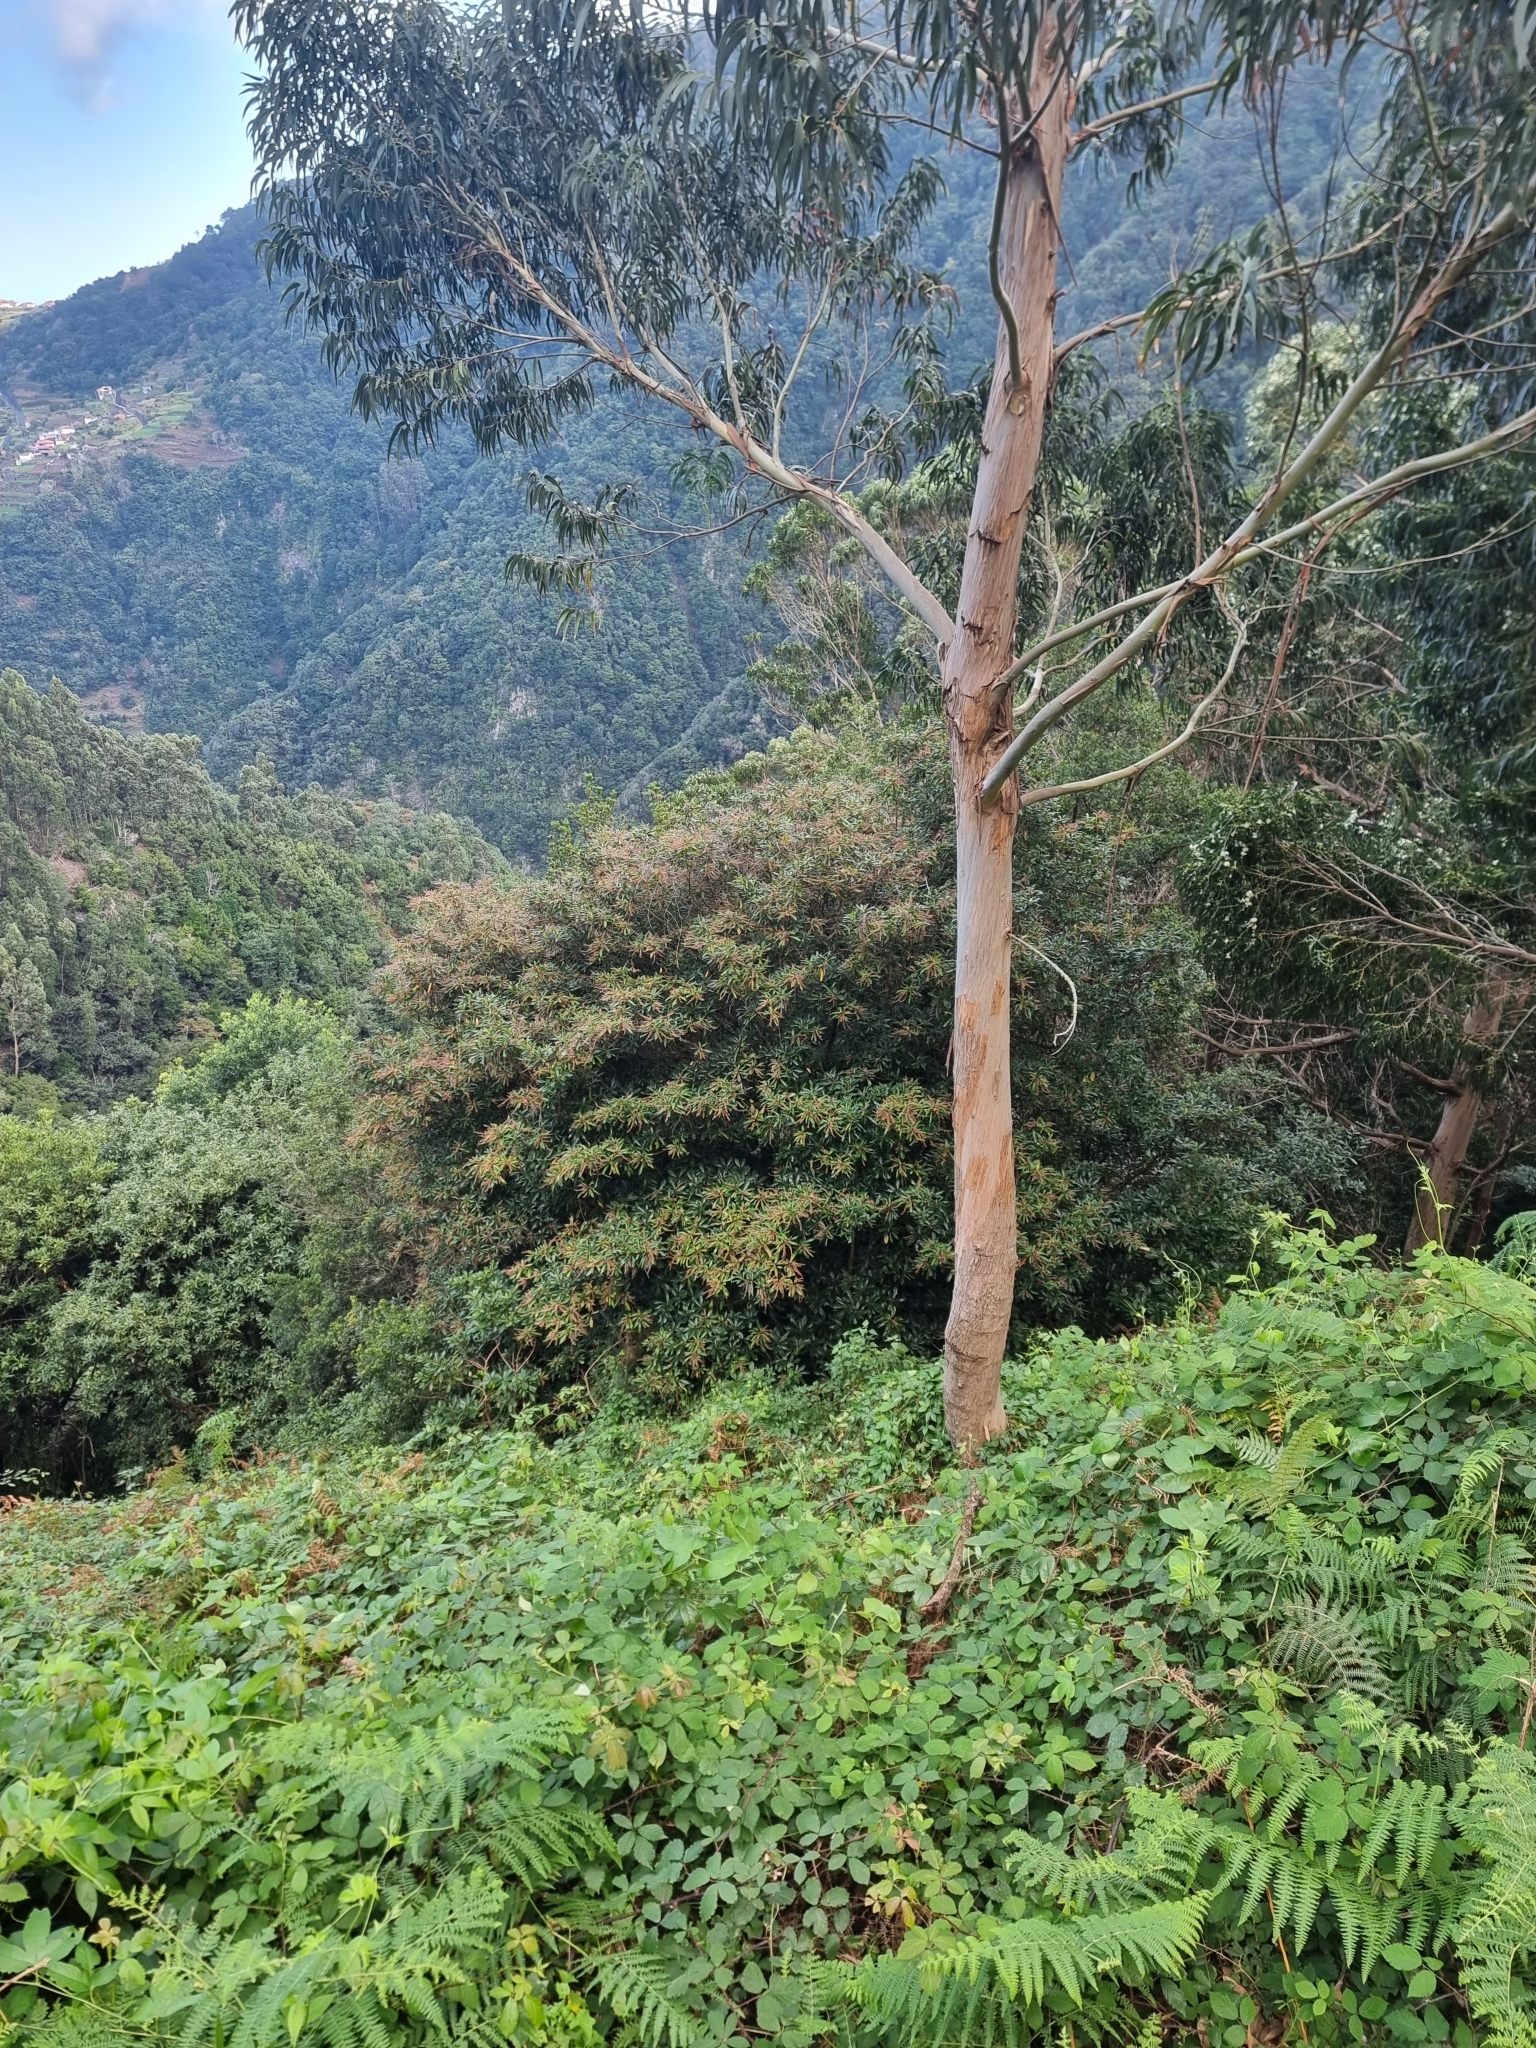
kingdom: Plantae
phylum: Tracheophyta
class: Magnoliopsida
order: Ericales
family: Clethraceae
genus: Clethra
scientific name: Clethra arborea
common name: Lily-of-the-valley-tree
